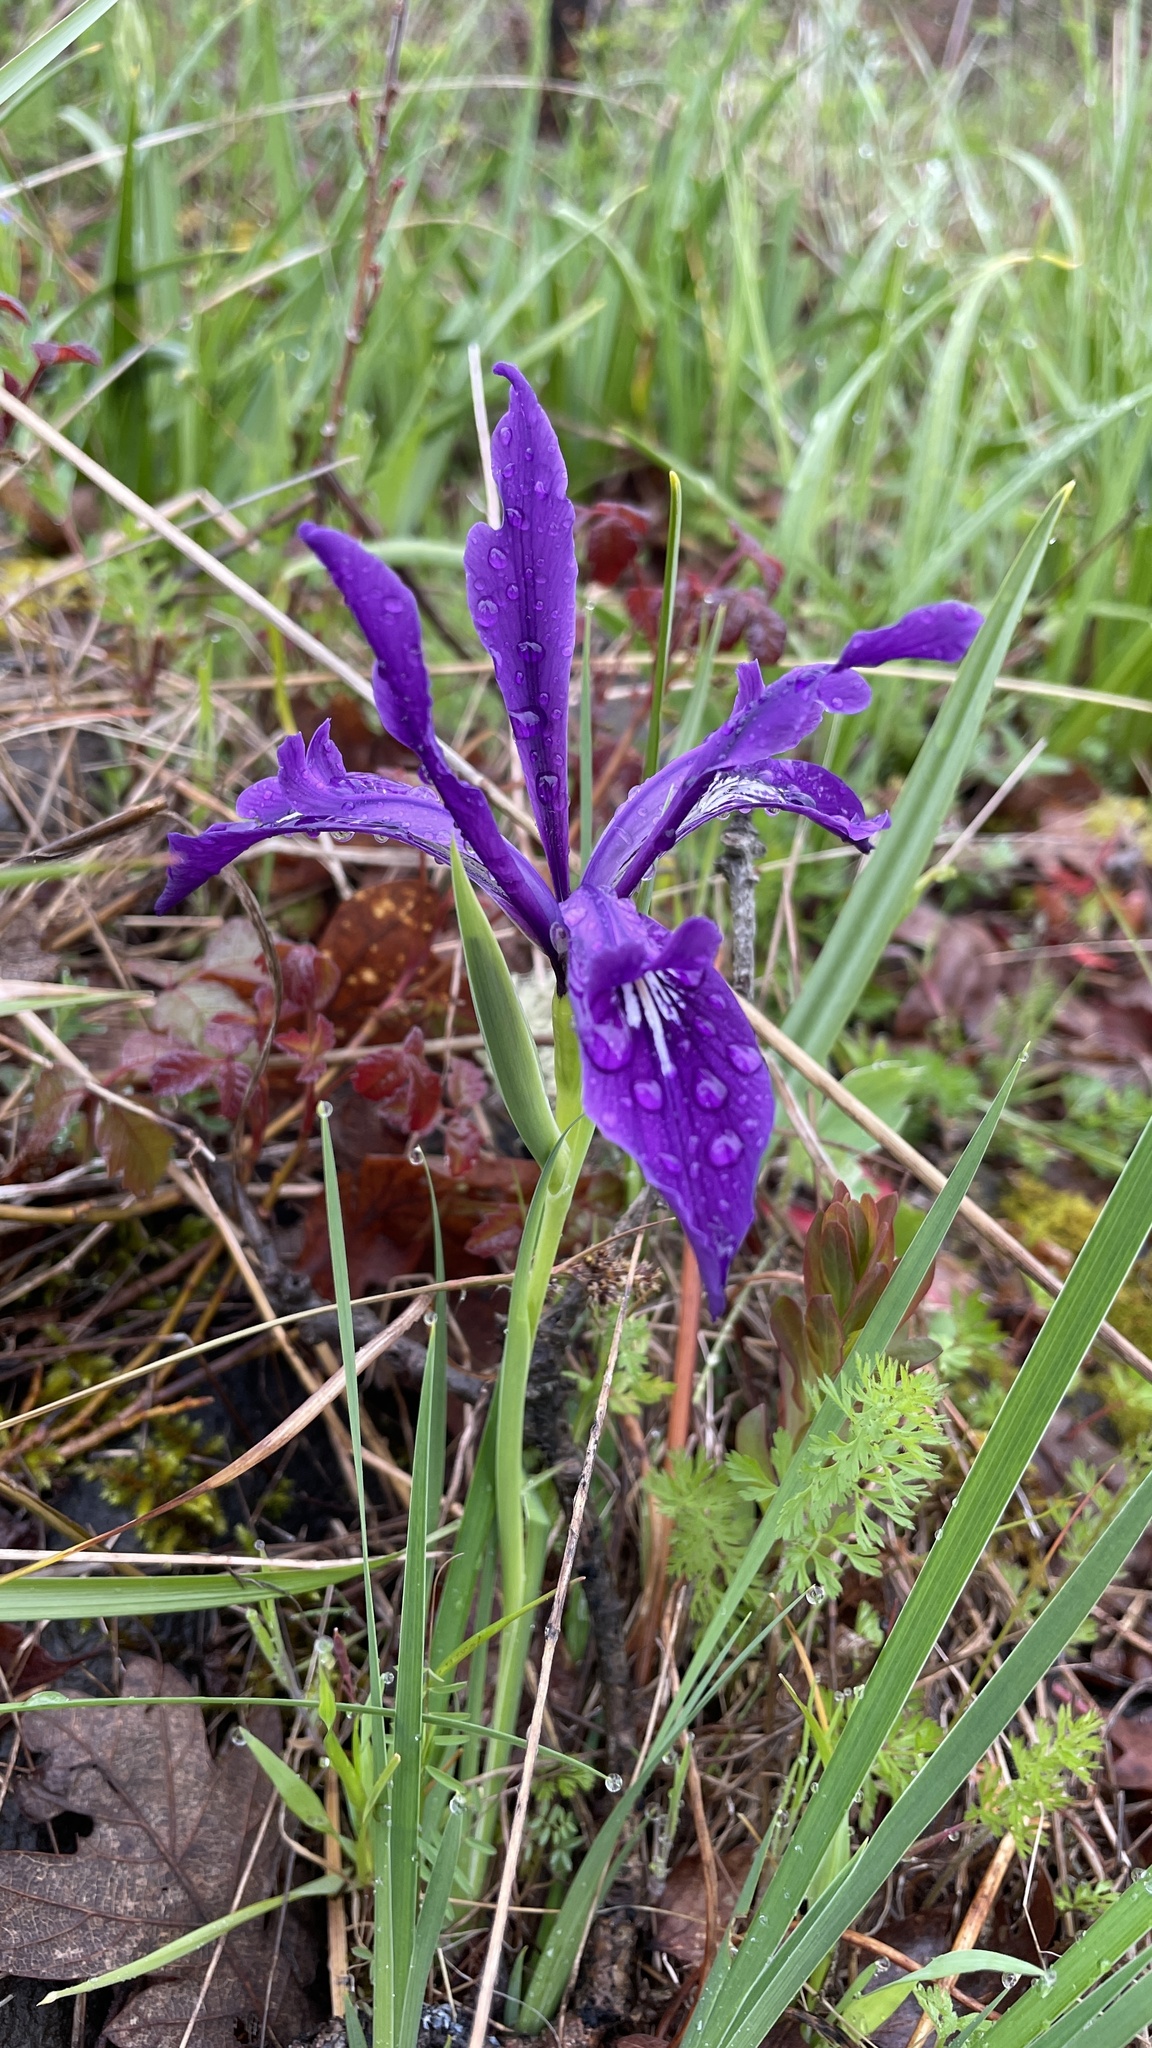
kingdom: Plantae
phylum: Tracheophyta
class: Liliopsida
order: Asparagales
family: Iridaceae
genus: Iris
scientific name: Iris tenax
